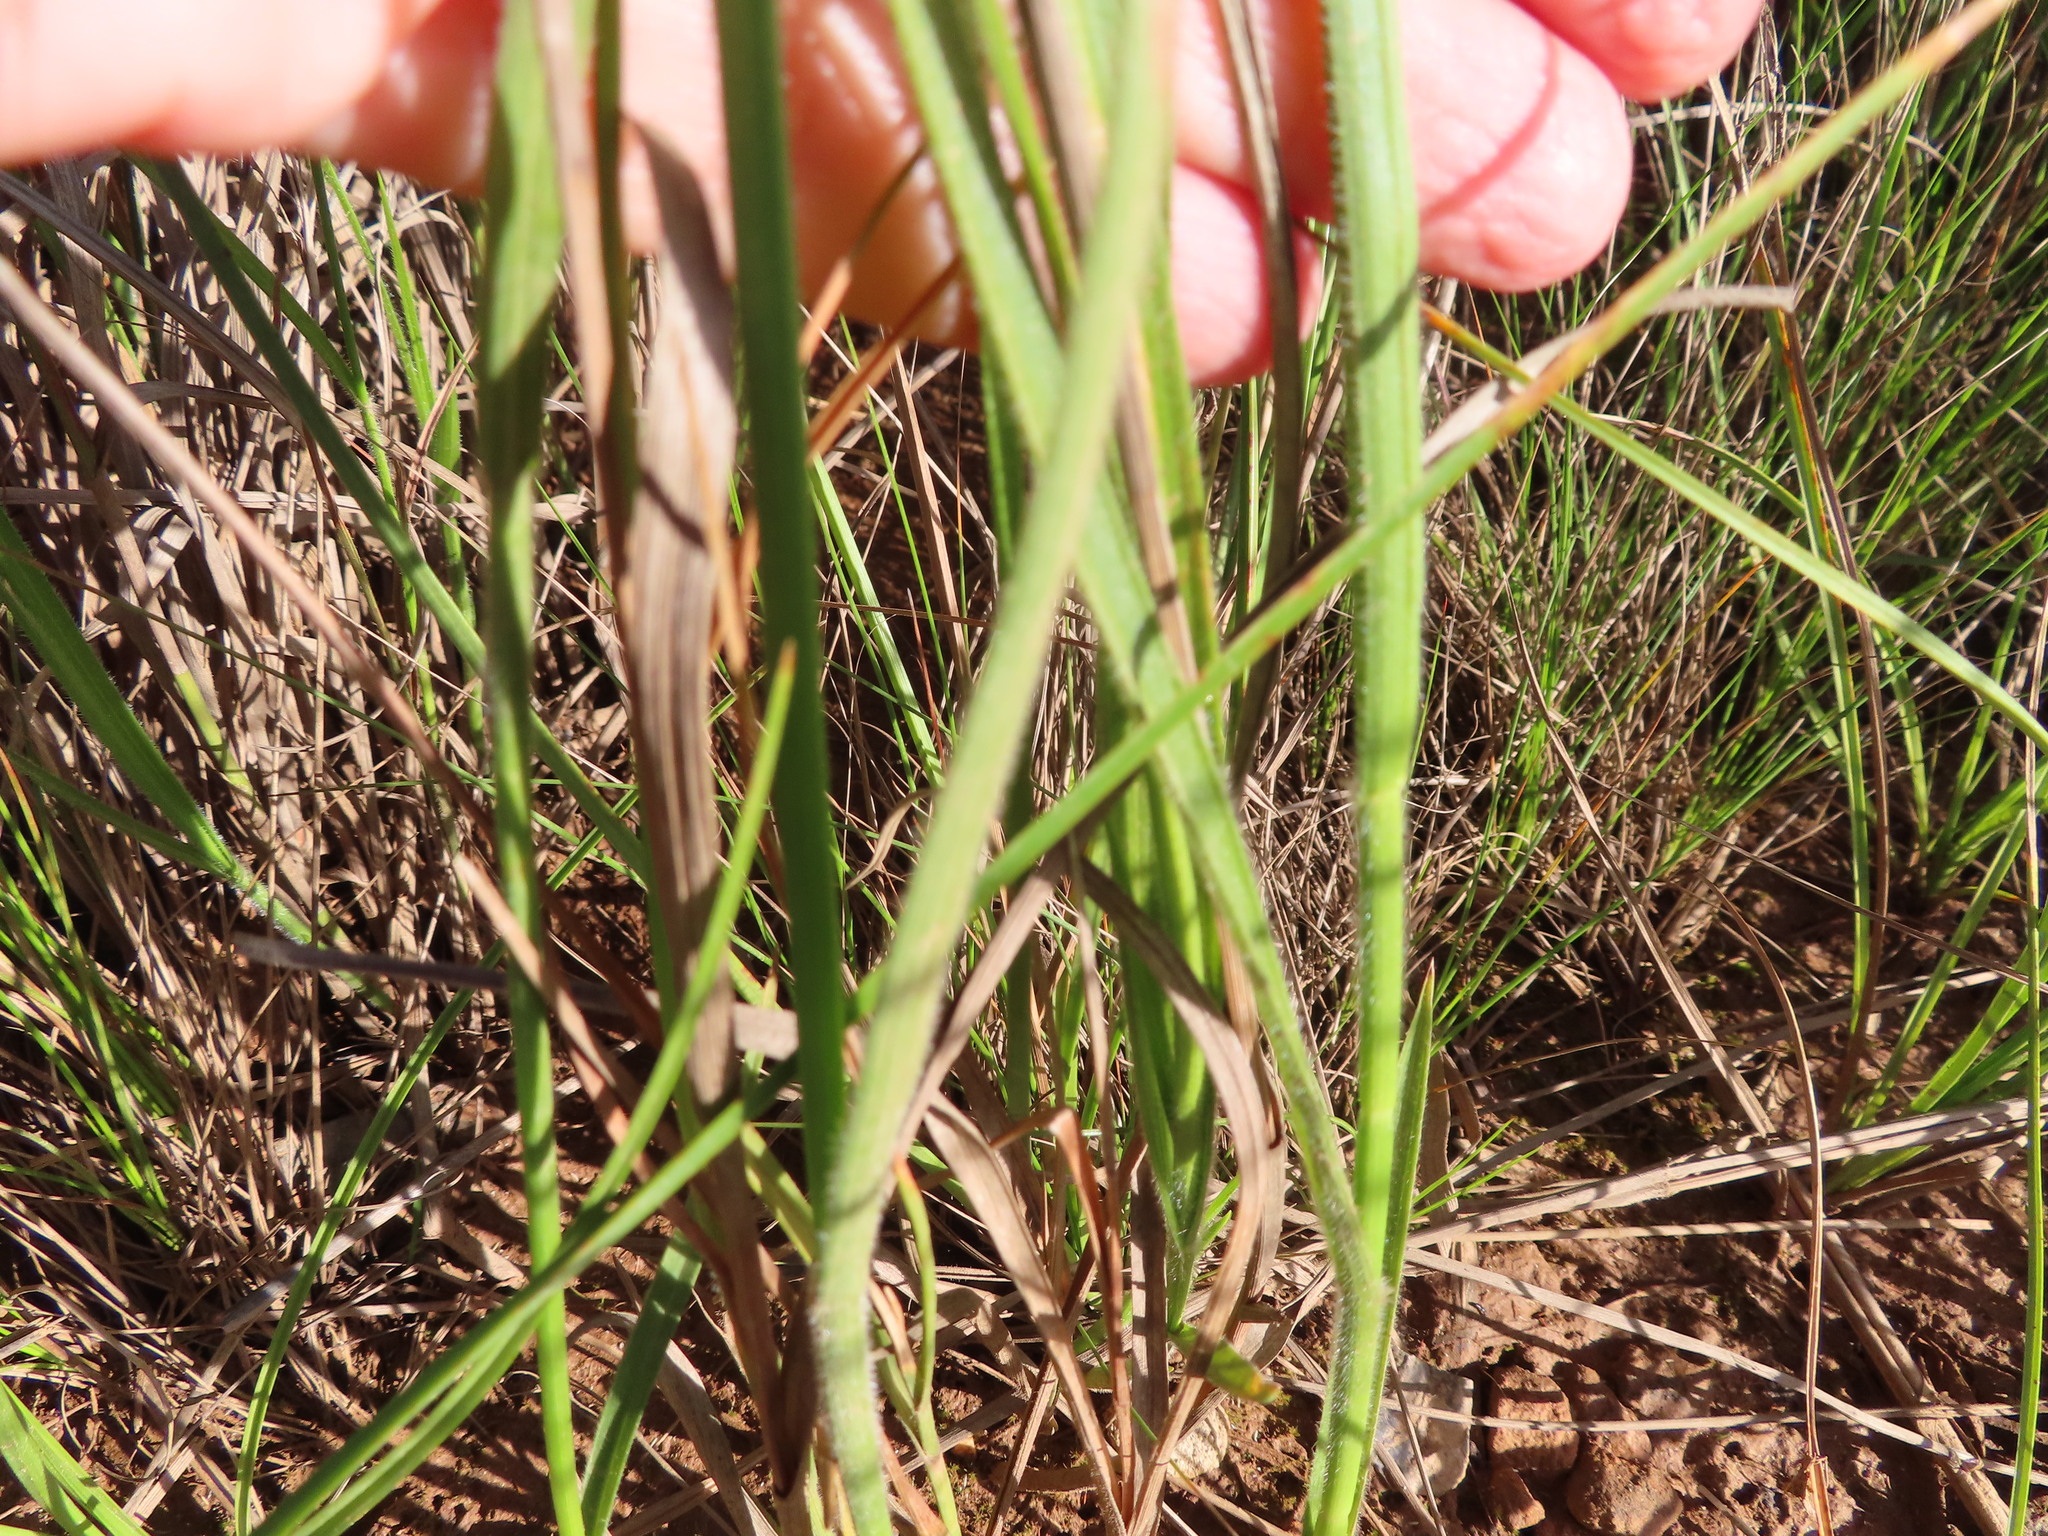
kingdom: Plantae
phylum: Tracheophyta
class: Liliopsida
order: Poales
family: Cyperaceae
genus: Fuirena
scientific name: Fuirena hirsuta
